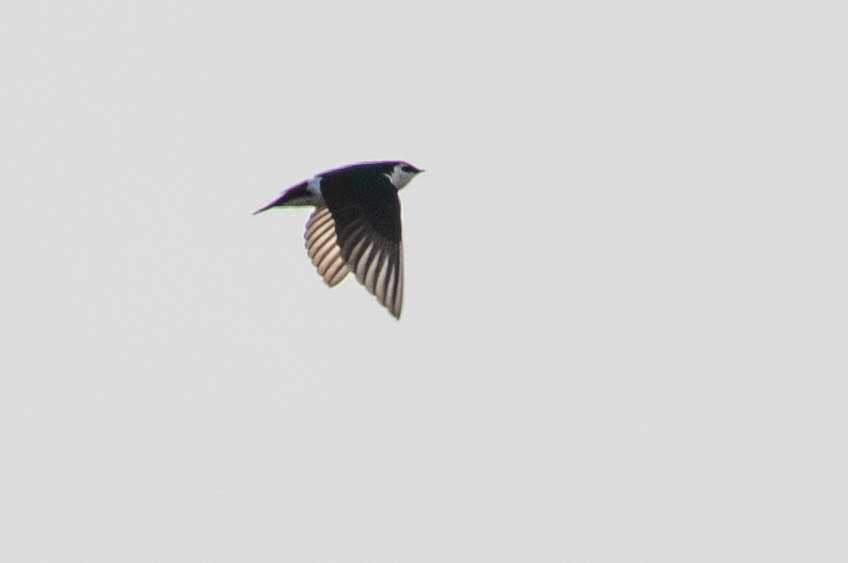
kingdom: Animalia
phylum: Chordata
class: Aves
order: Passeriformes
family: Hirundinidae
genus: Tachycineta
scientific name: Tachycineta thalassina
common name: Violet-green swallow
